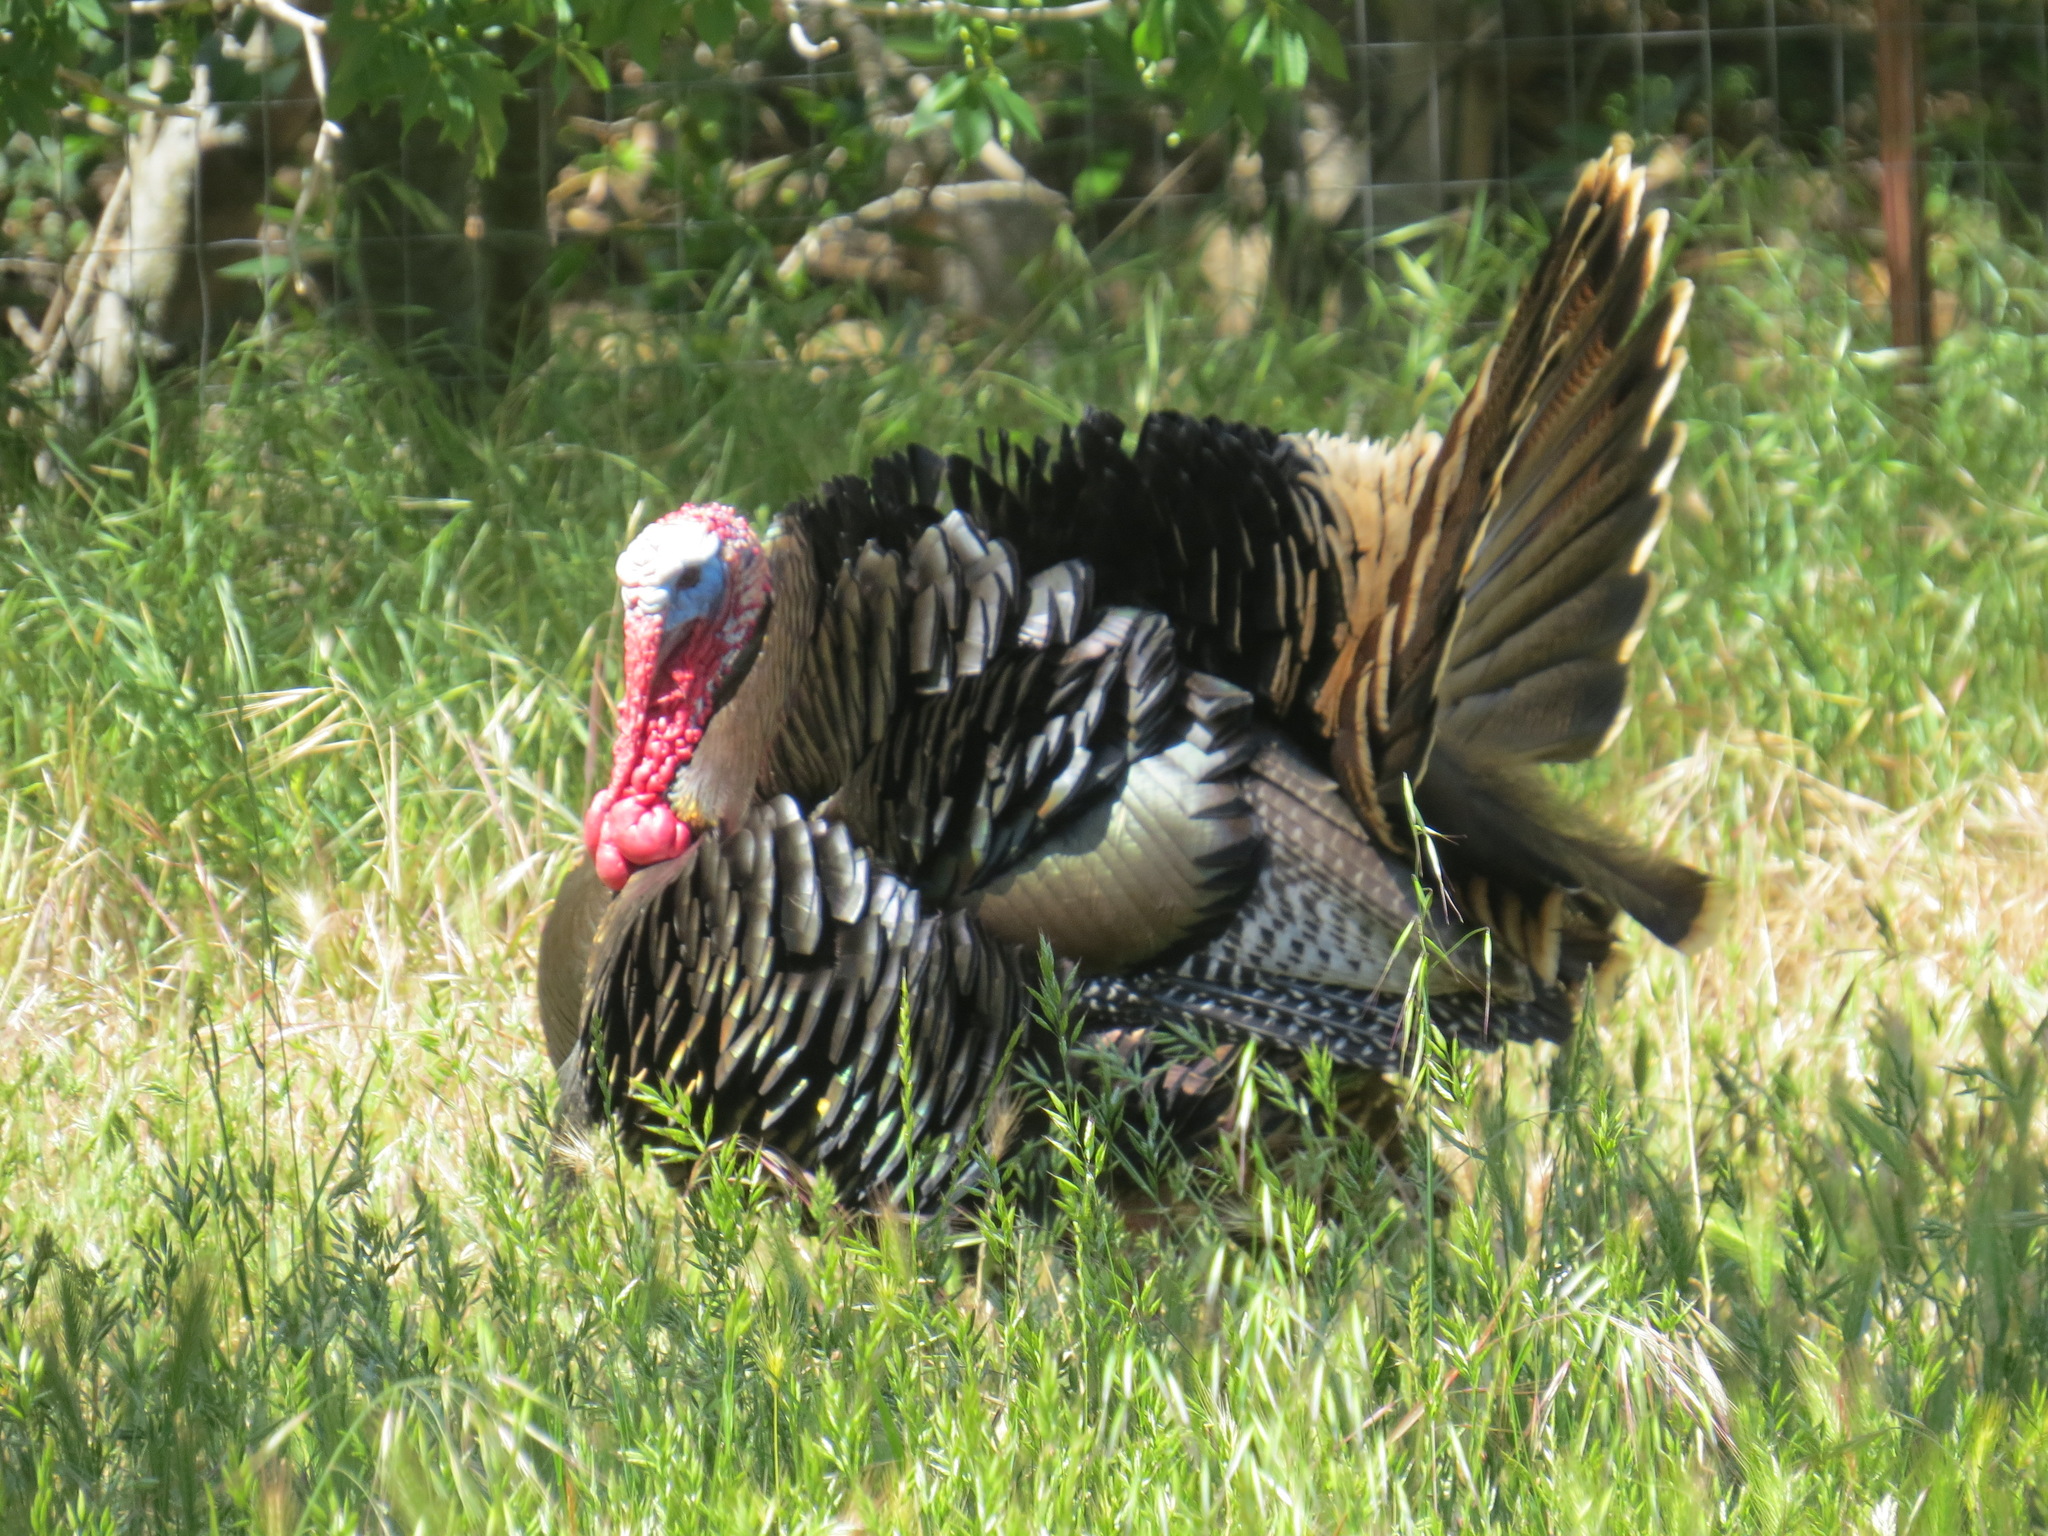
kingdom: Animalia
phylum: Chordata
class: Aves
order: Galliformes
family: Phasianidae
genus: Meleagris
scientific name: Meleagris gallopavo
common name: Wild turkey
